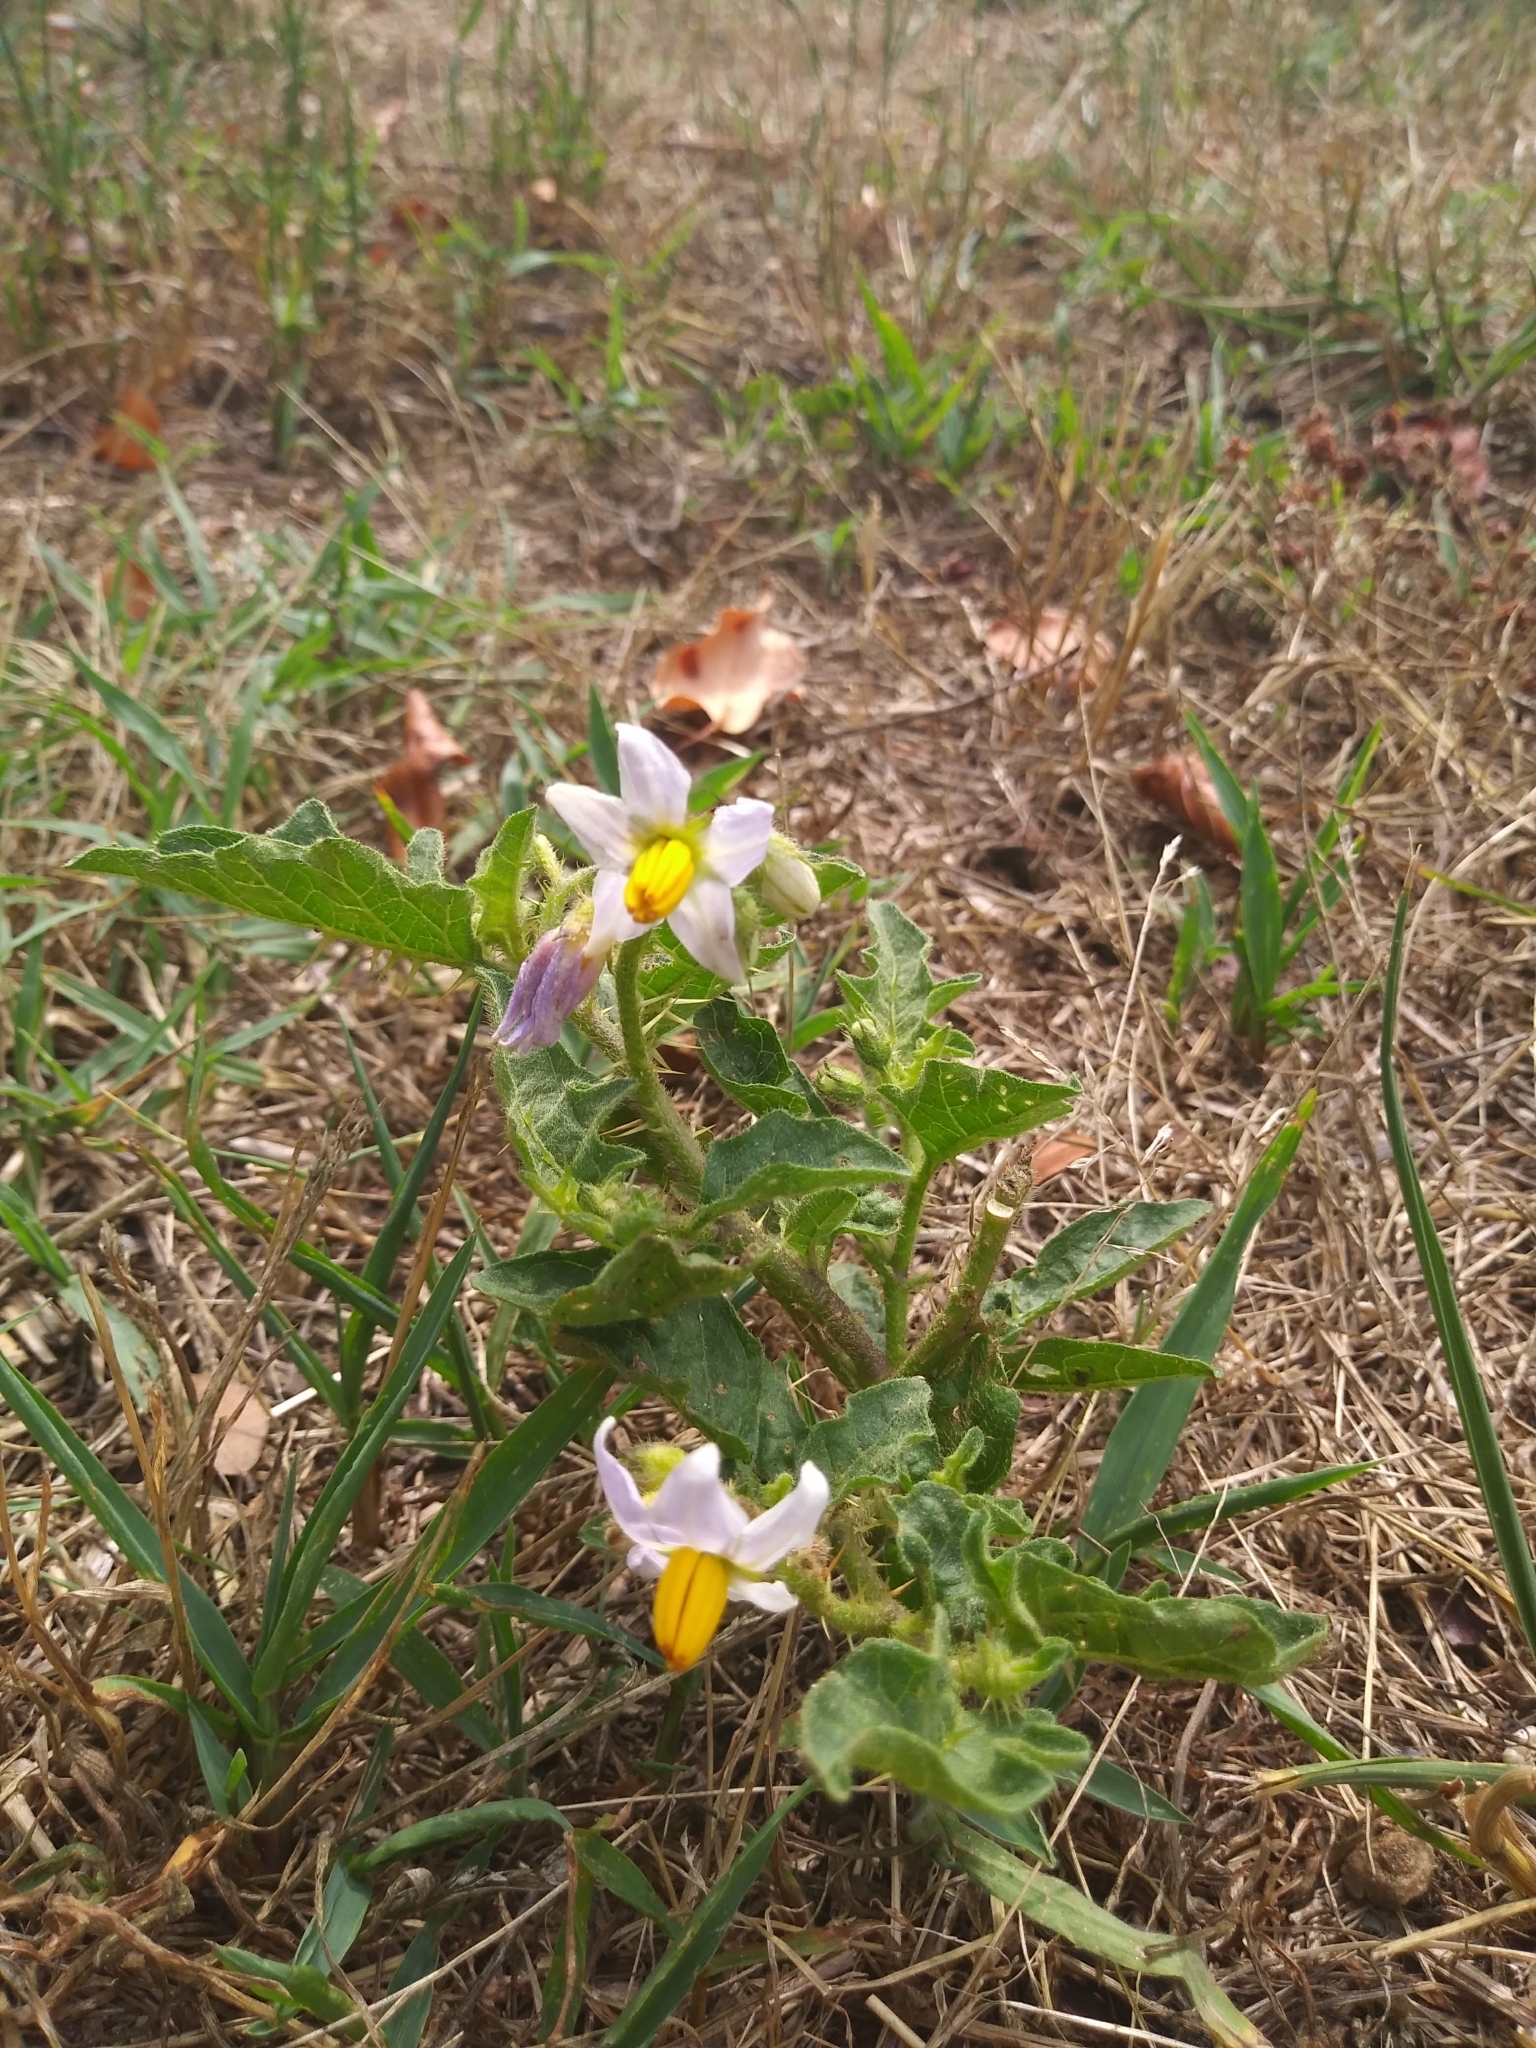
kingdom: Plantae
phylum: Tracheophyta
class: Magnoliopsida
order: Solanales
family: Solanaceae
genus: Solanum
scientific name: Solanum carolinense
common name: Horse-nettle
